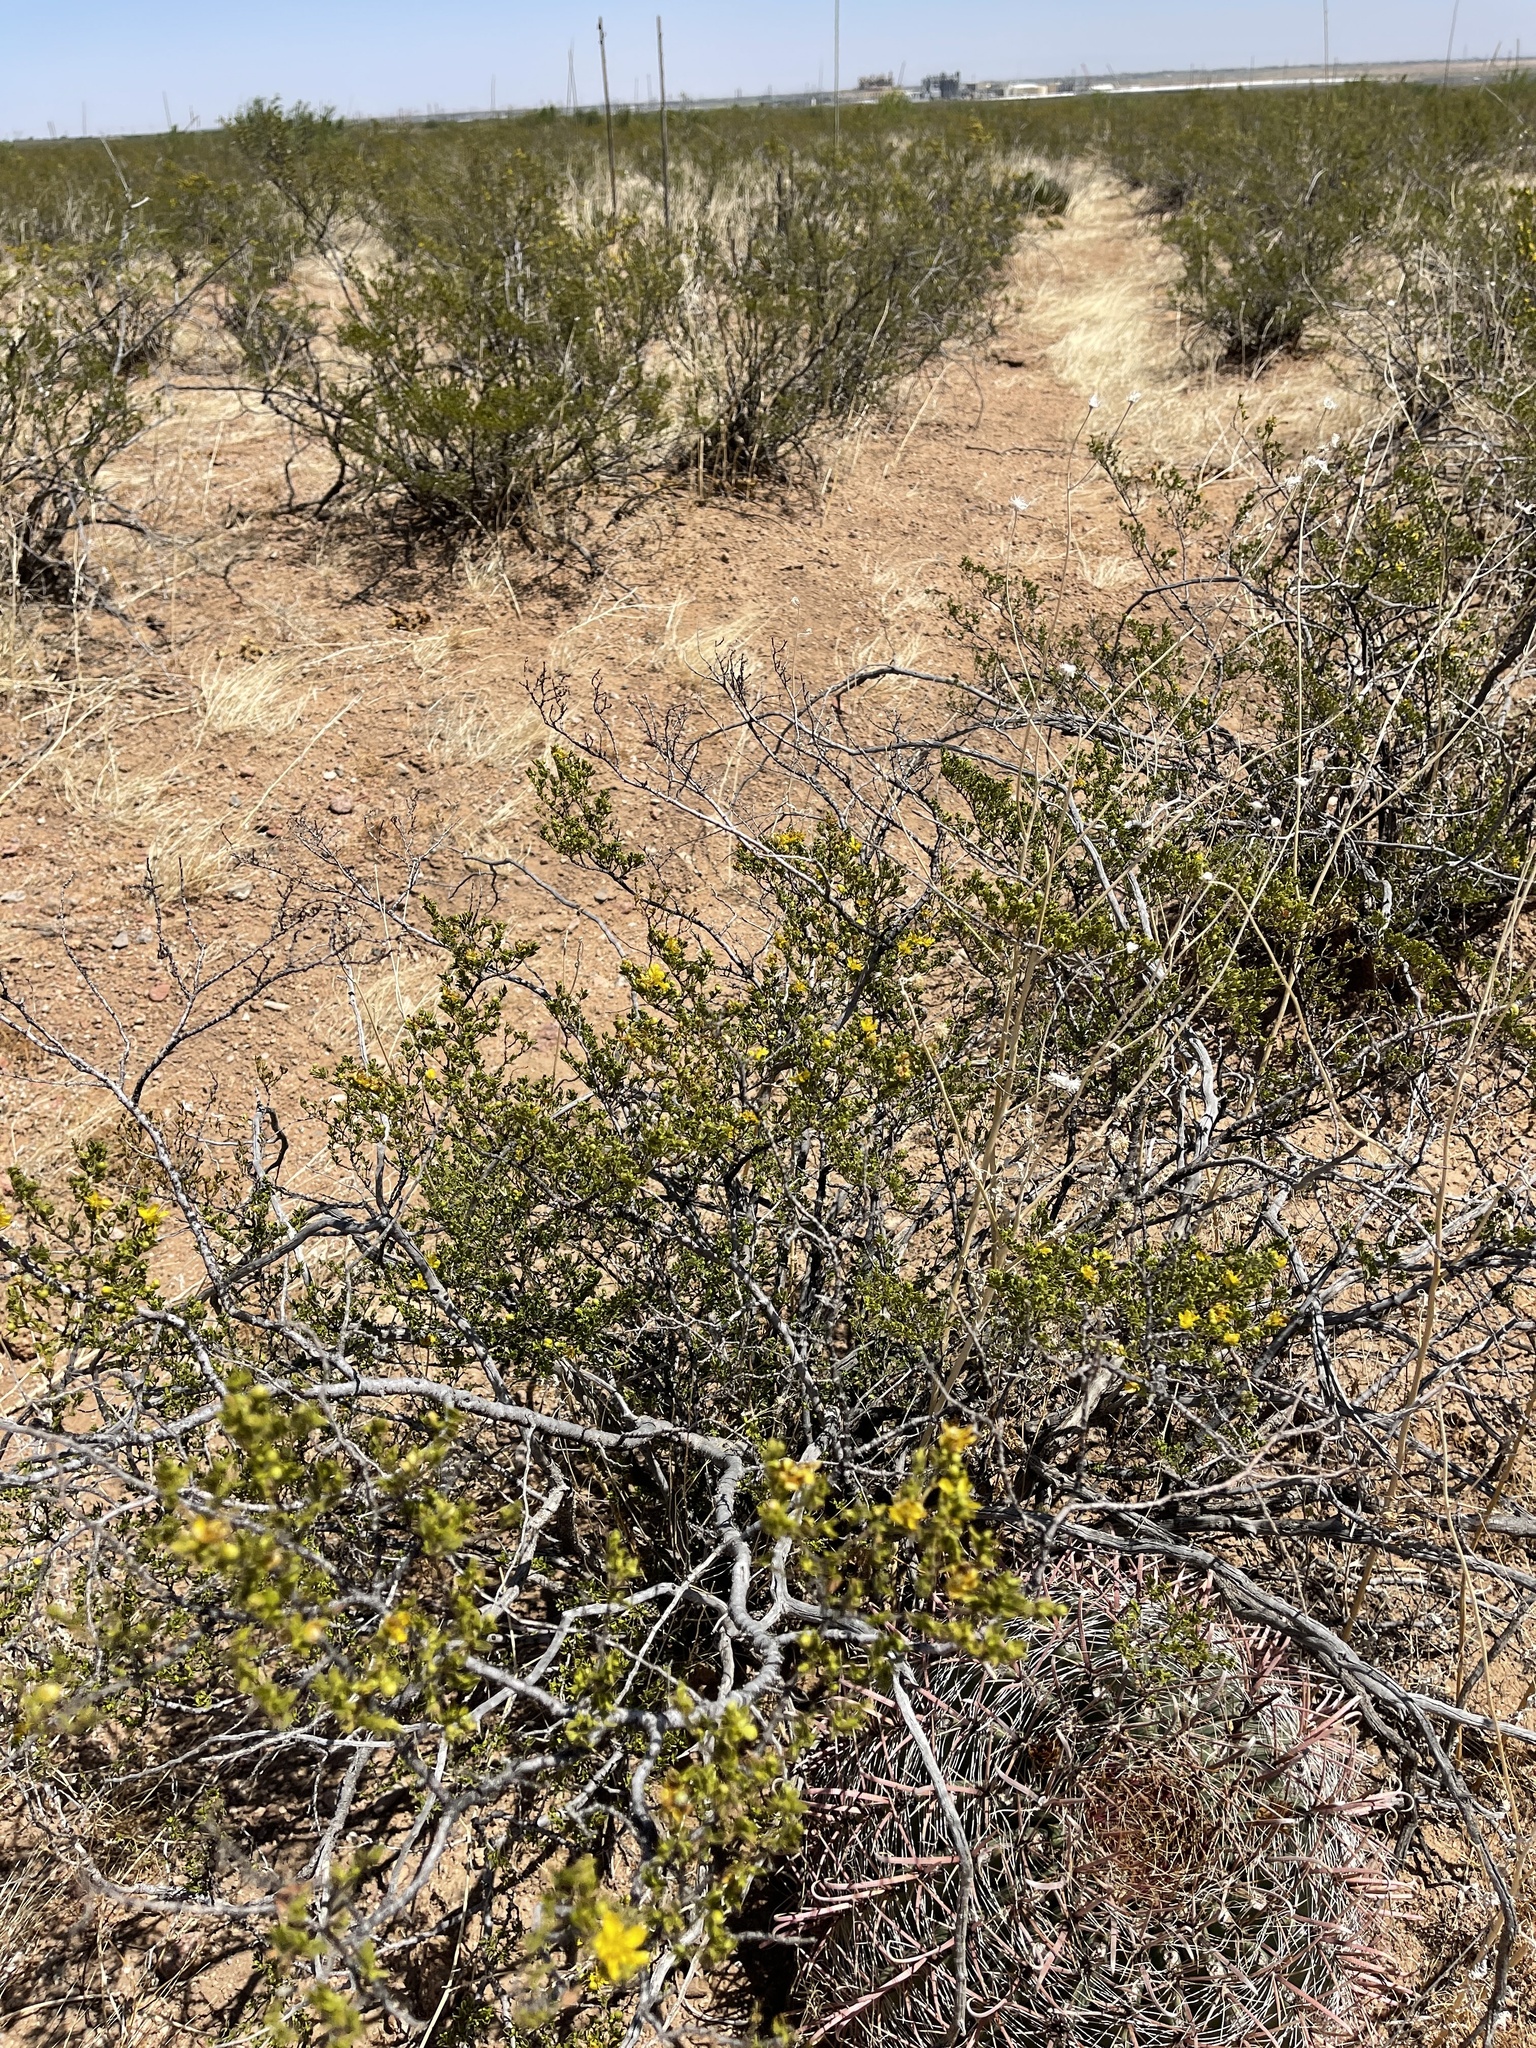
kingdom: Plantae
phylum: Tracheophyta
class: Magnoliopsida
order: Zygophyllales
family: Zygophyllaceae
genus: Larrea
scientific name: Larrea tridentata
